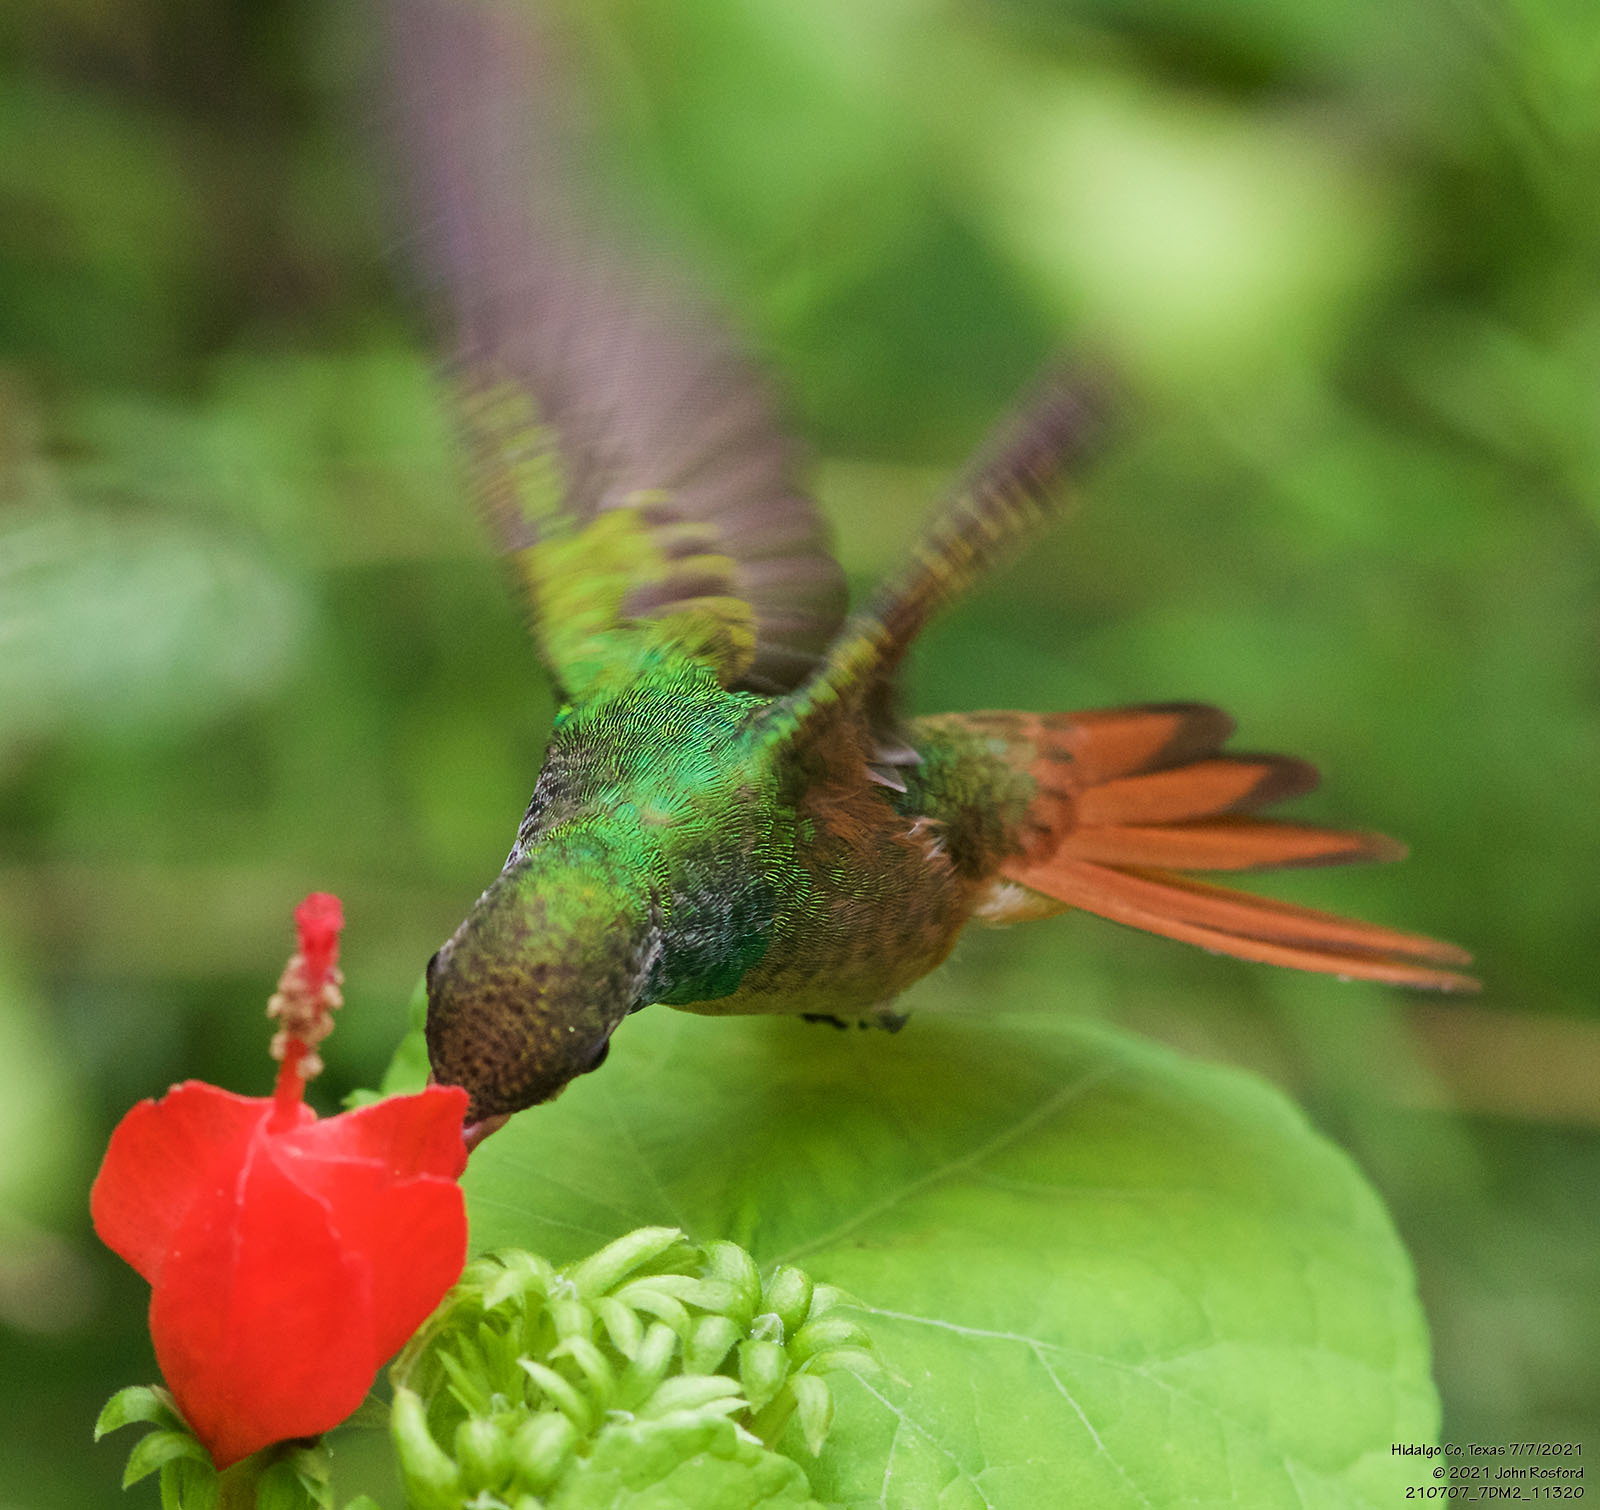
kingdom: Animalia
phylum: Chordata
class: Aves
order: Apodiformes
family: Trochilidae
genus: Amazilia
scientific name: Amazilia yucatanensis
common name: Buff-bellied hummingbird
